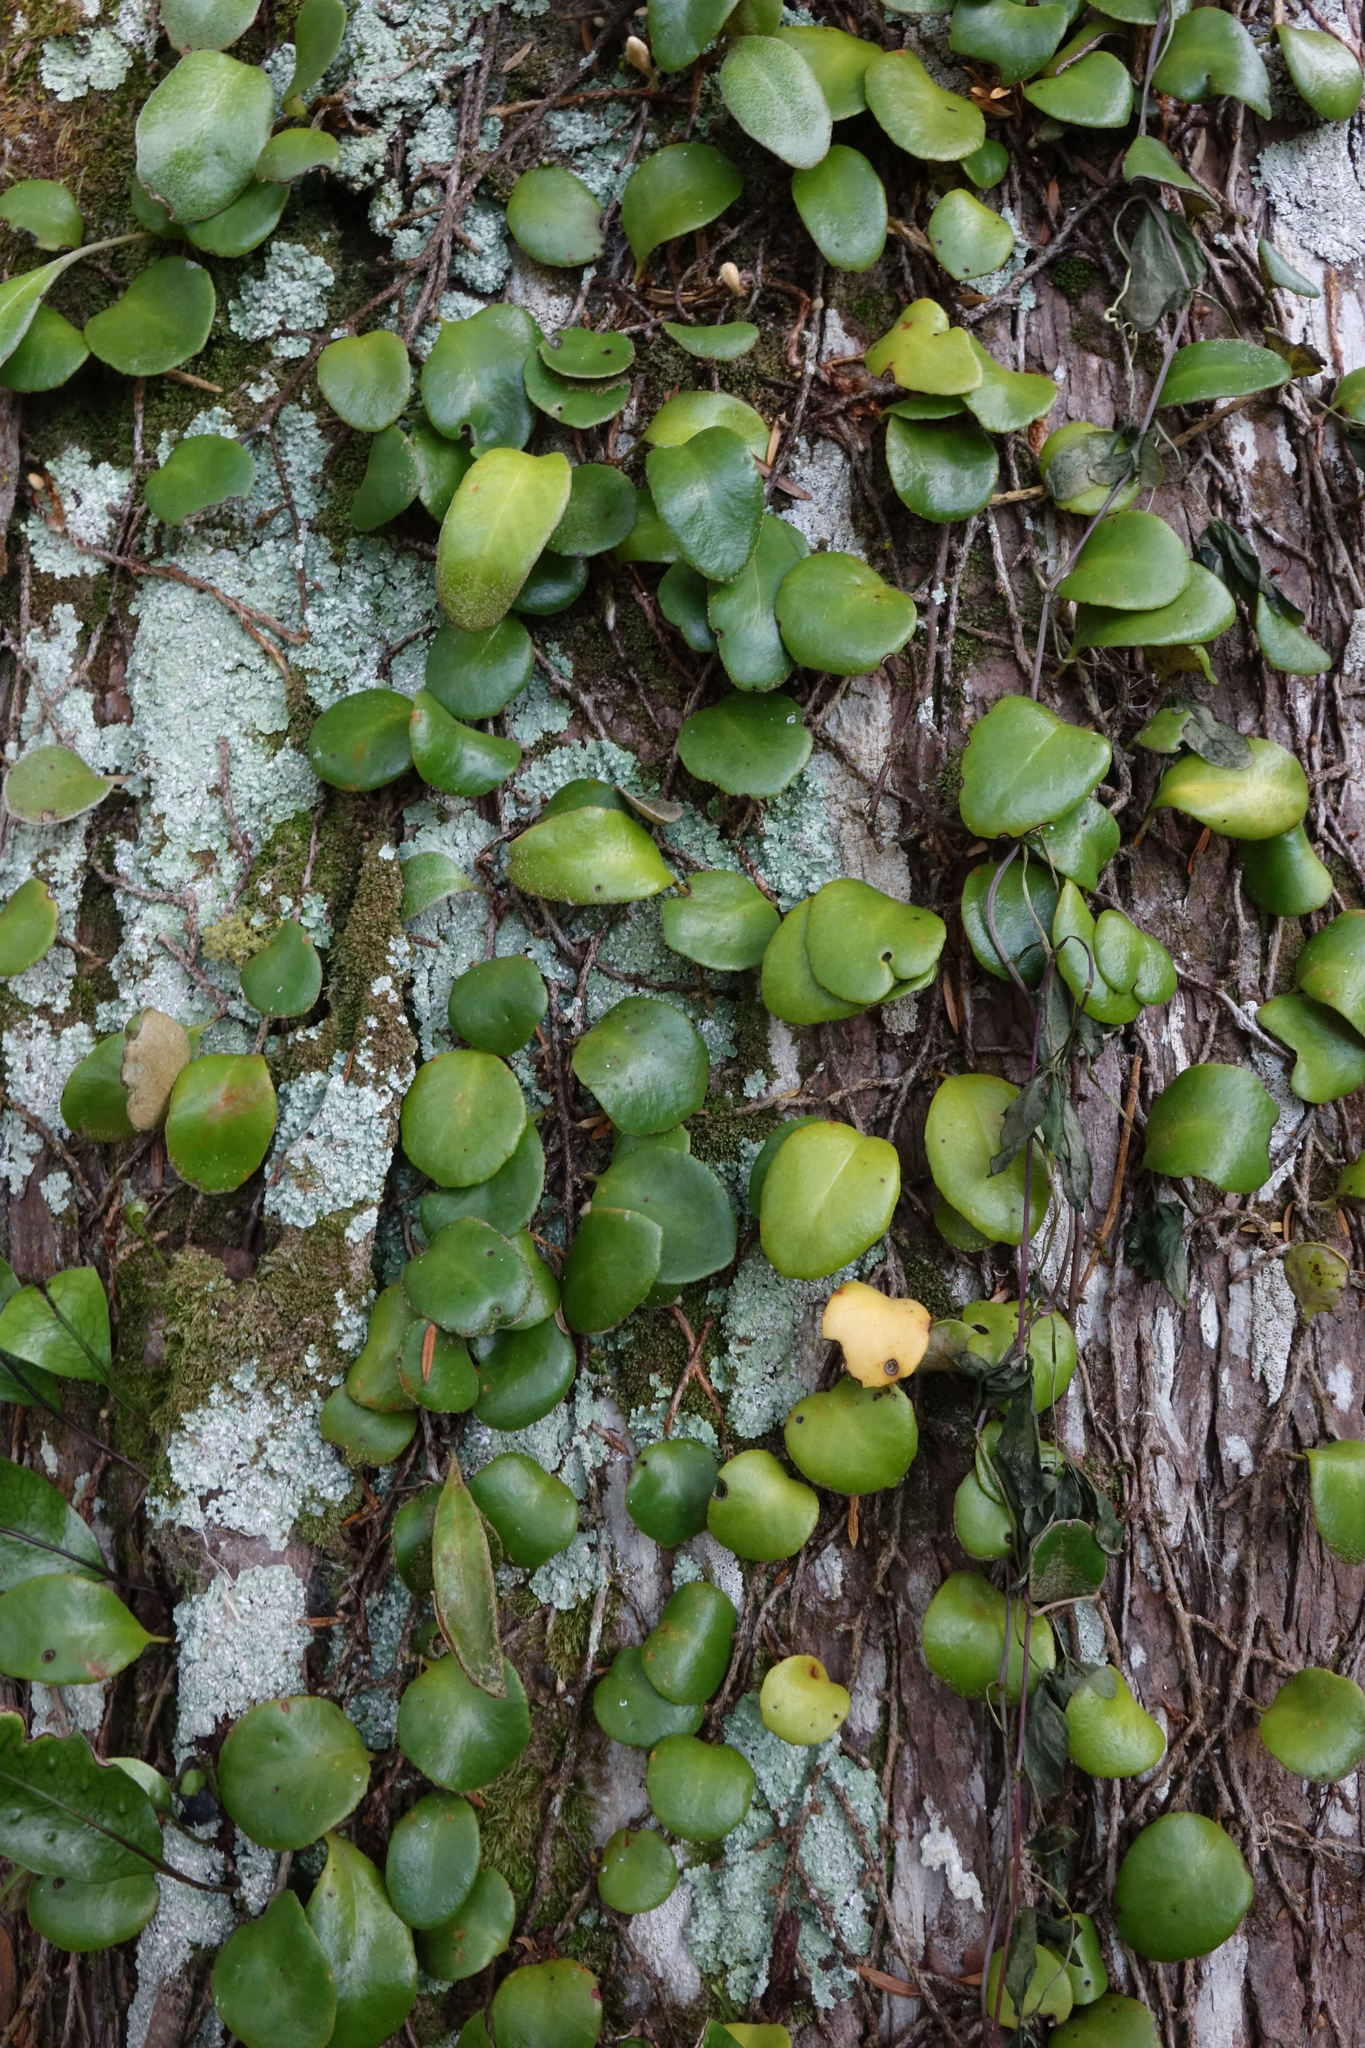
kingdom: Plantae
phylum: Tracheophyta
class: Polypodiopsida
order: Polypodiales
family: Polypodiaceae
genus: Pyrrosia
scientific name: Pyrrosia eleagnifolia
